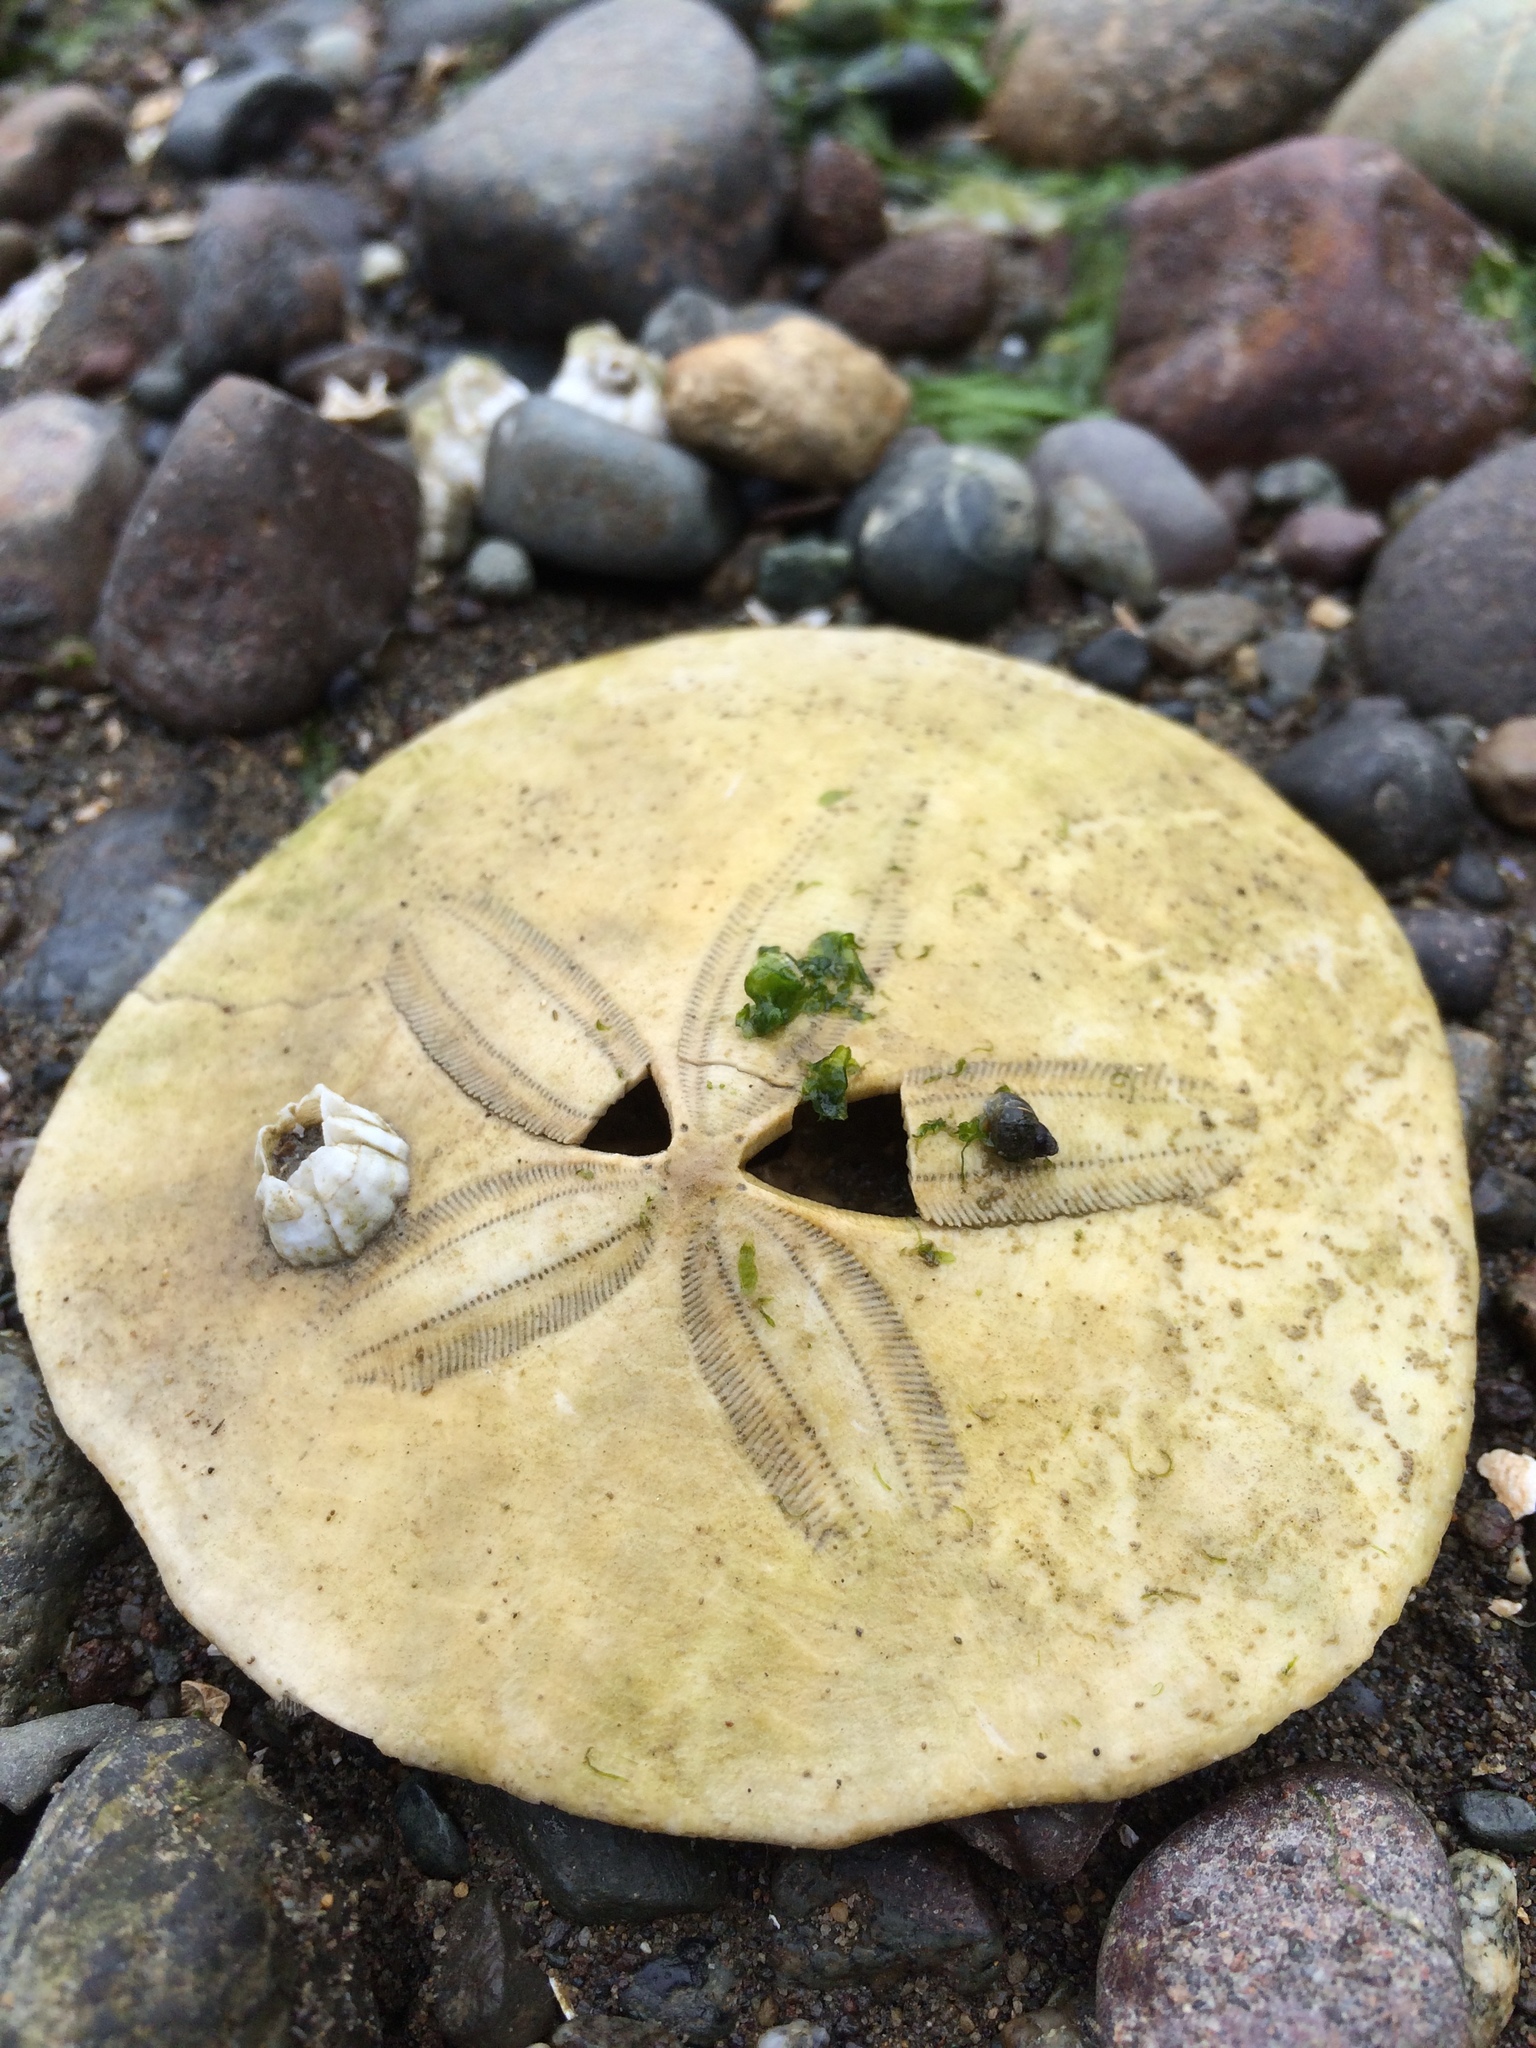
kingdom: Animalia
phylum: Echinodermata
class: Echinoidea
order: Echinolampadacea
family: Dendrasteridae
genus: Dendraster
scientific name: Dendraster excentricus
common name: Eccentric sand dollar sea urchin
